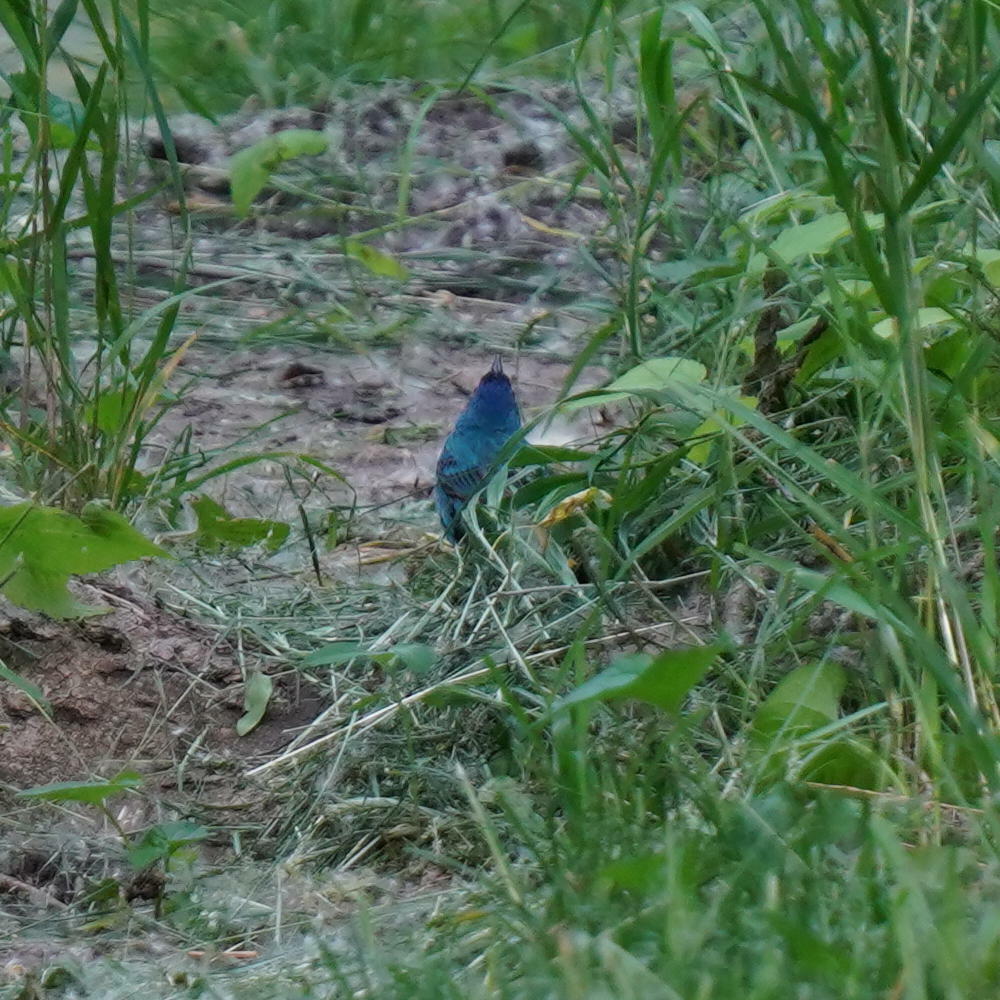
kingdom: Animalia
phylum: Chordata
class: Aves
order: Passeriformes
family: Cardinalidae
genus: Passerina
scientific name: Passerina cyanea
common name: Indigo bunting
